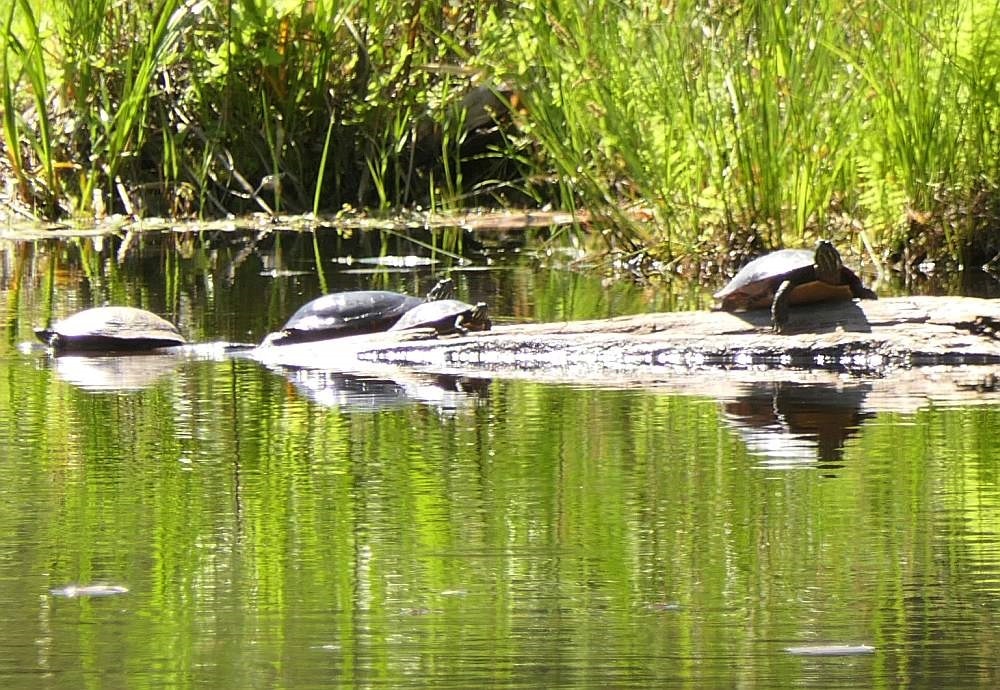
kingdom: Animalia
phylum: Chordata
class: Testudines
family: Emydidae
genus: Chrysemys
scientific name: Chrysemys picta
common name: Painted turtle
